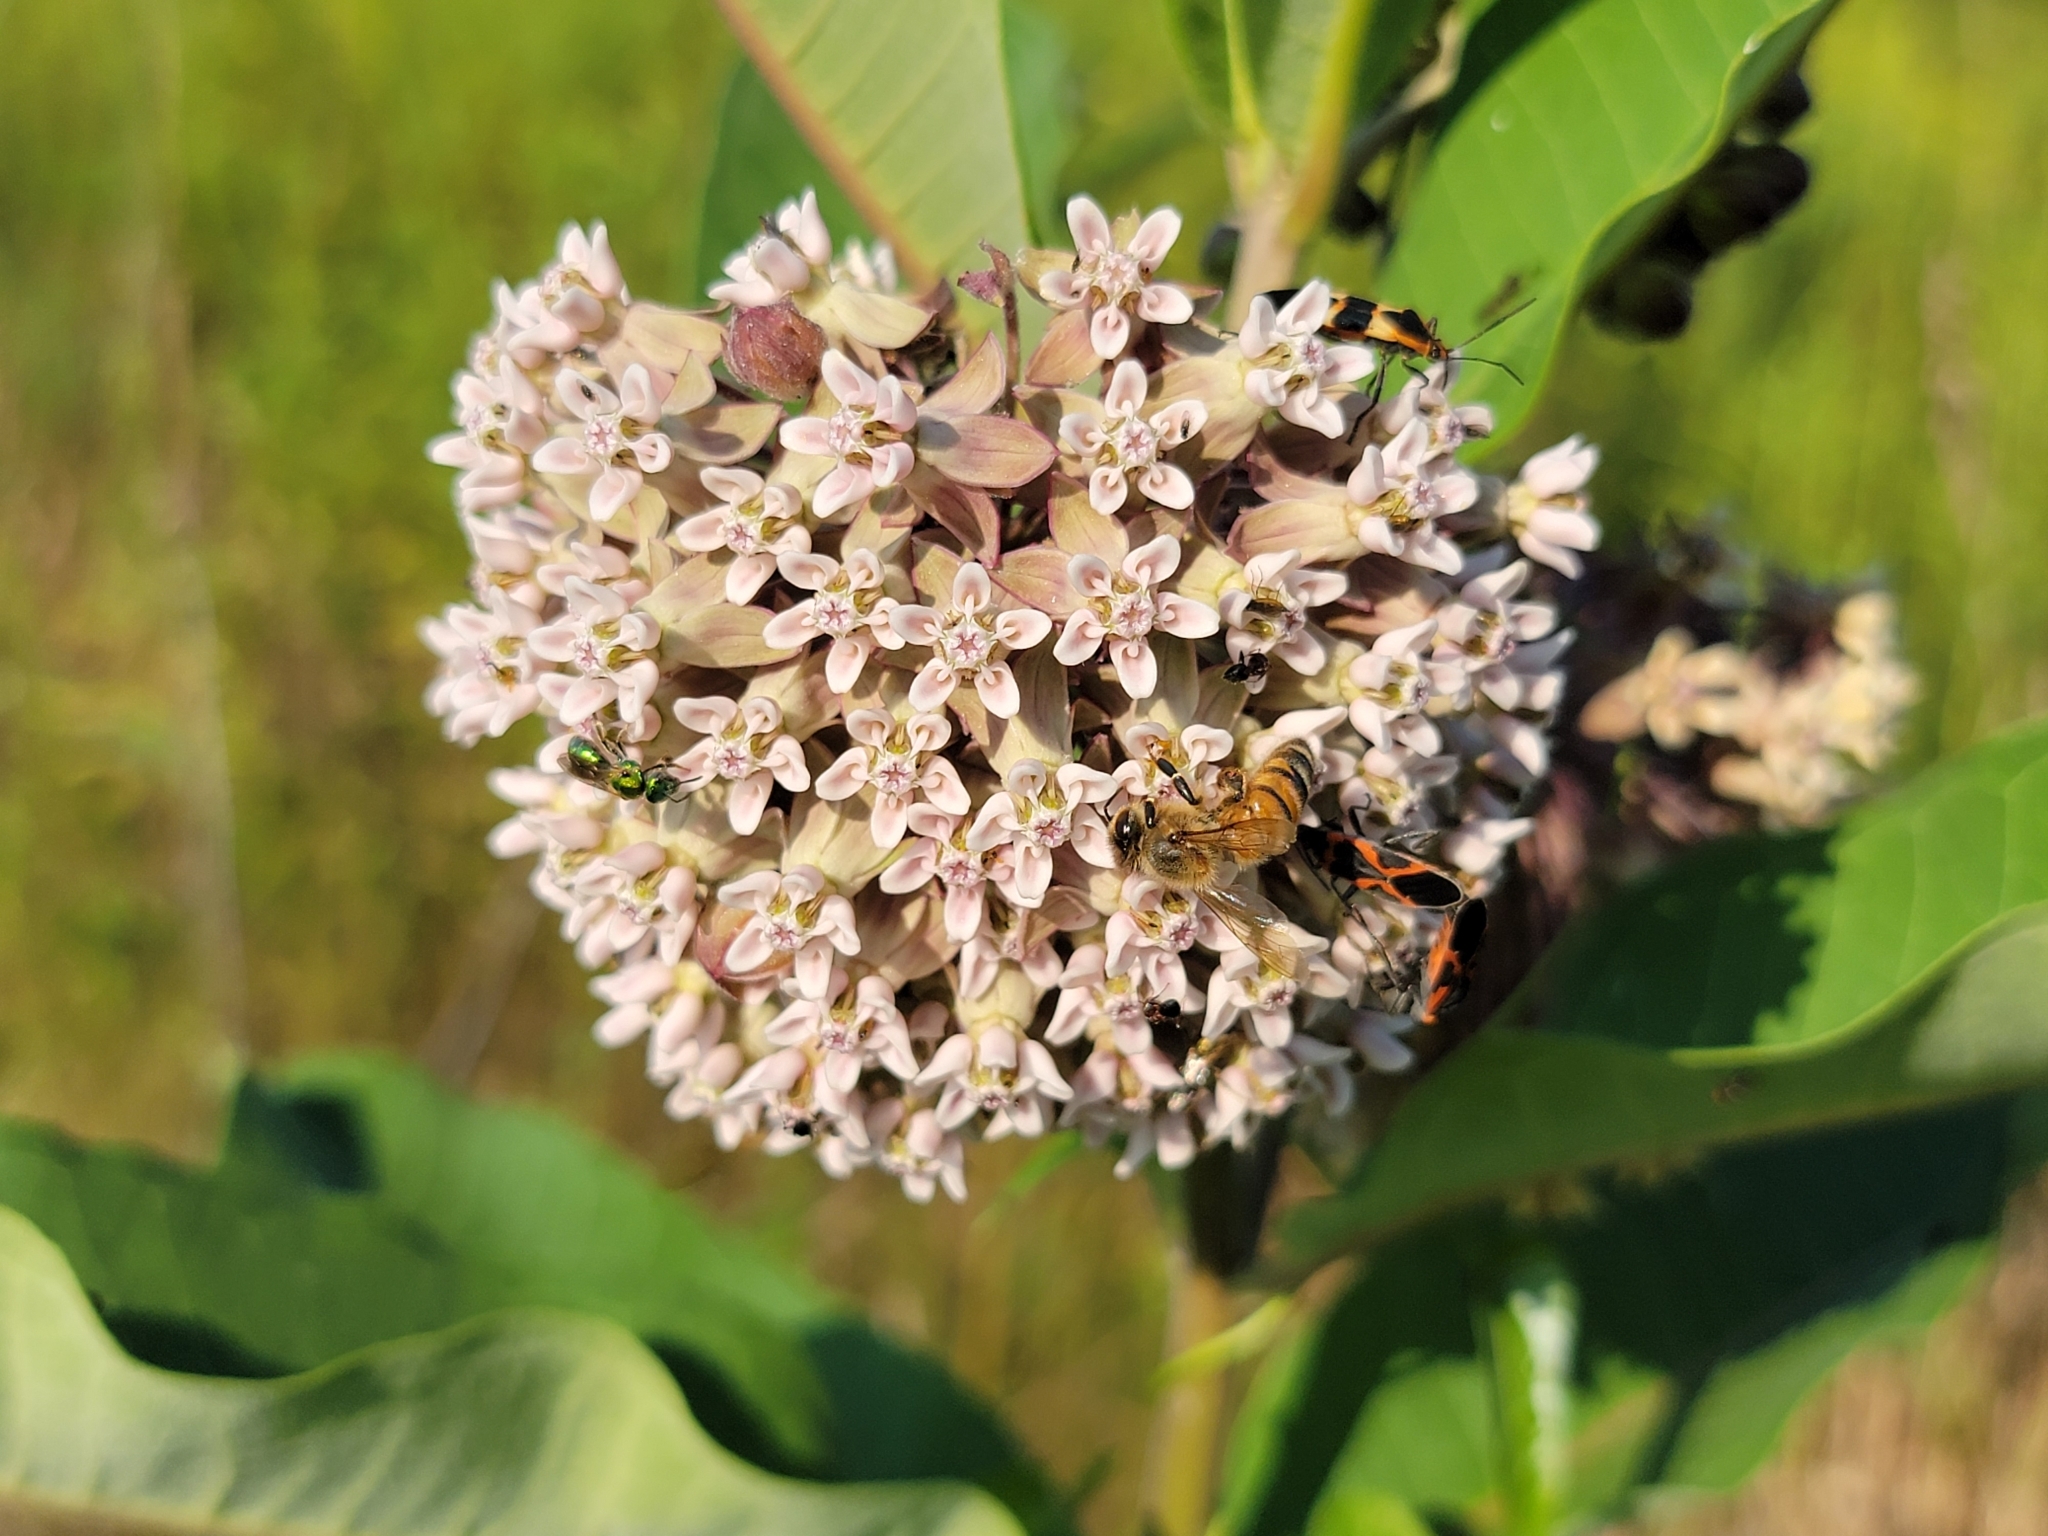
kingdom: Plantae
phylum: Tracheophyta
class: Magnoliopsida
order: Gentianales
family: Apocynaceae
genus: Asclepias
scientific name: Asclepias syriaca
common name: Common milkweed
